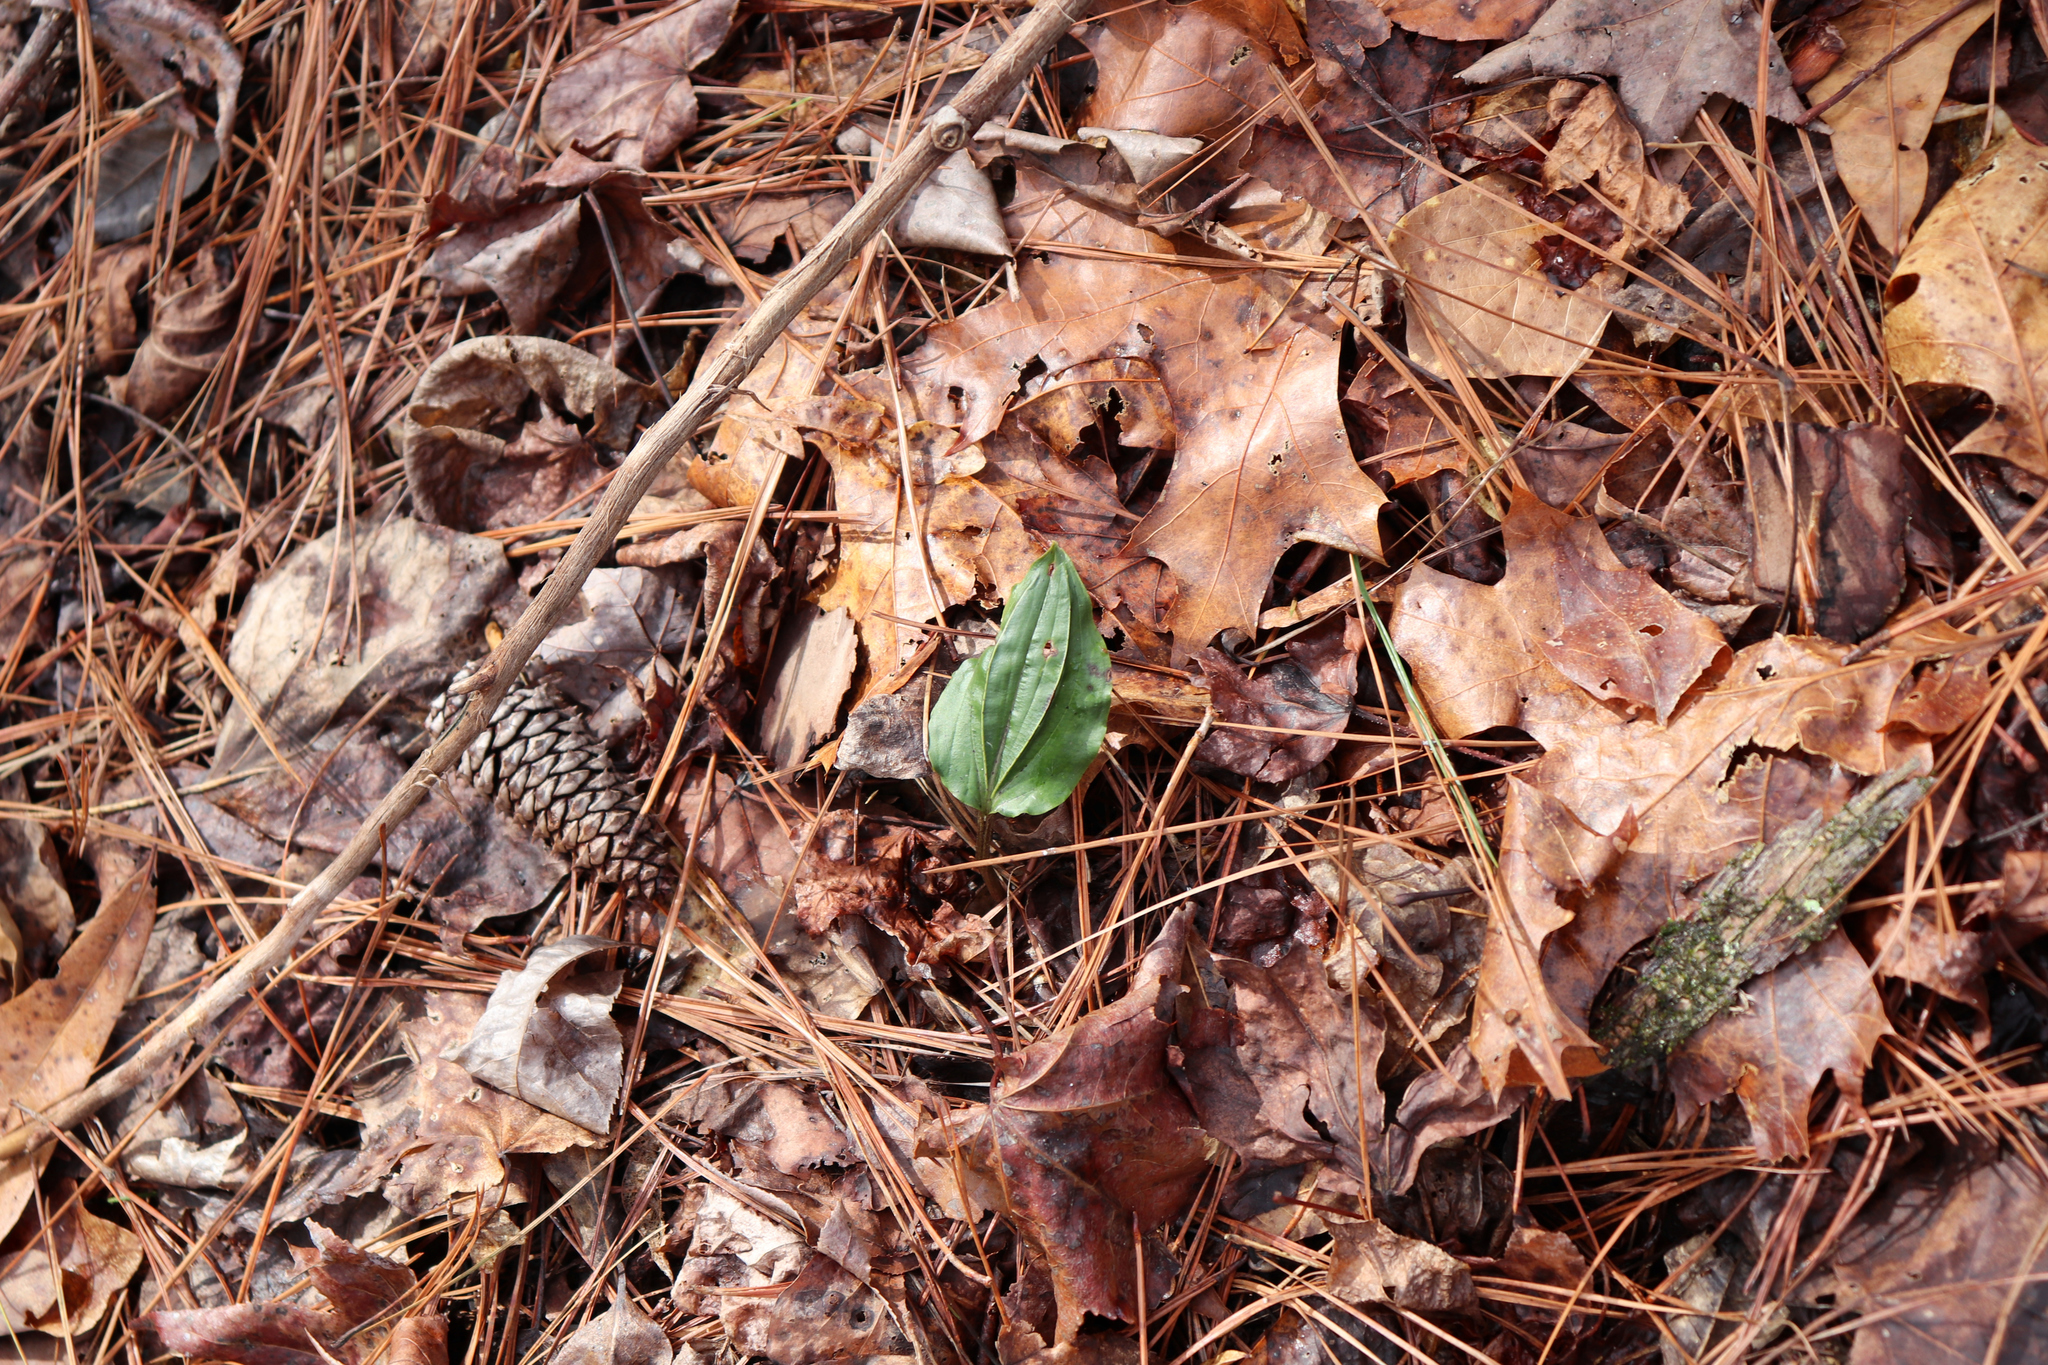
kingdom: Plantae
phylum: Tracheophyta
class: Liliopsida
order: Asparagales
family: Orchidaceae
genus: Tipularia
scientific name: Tipularia discolor
